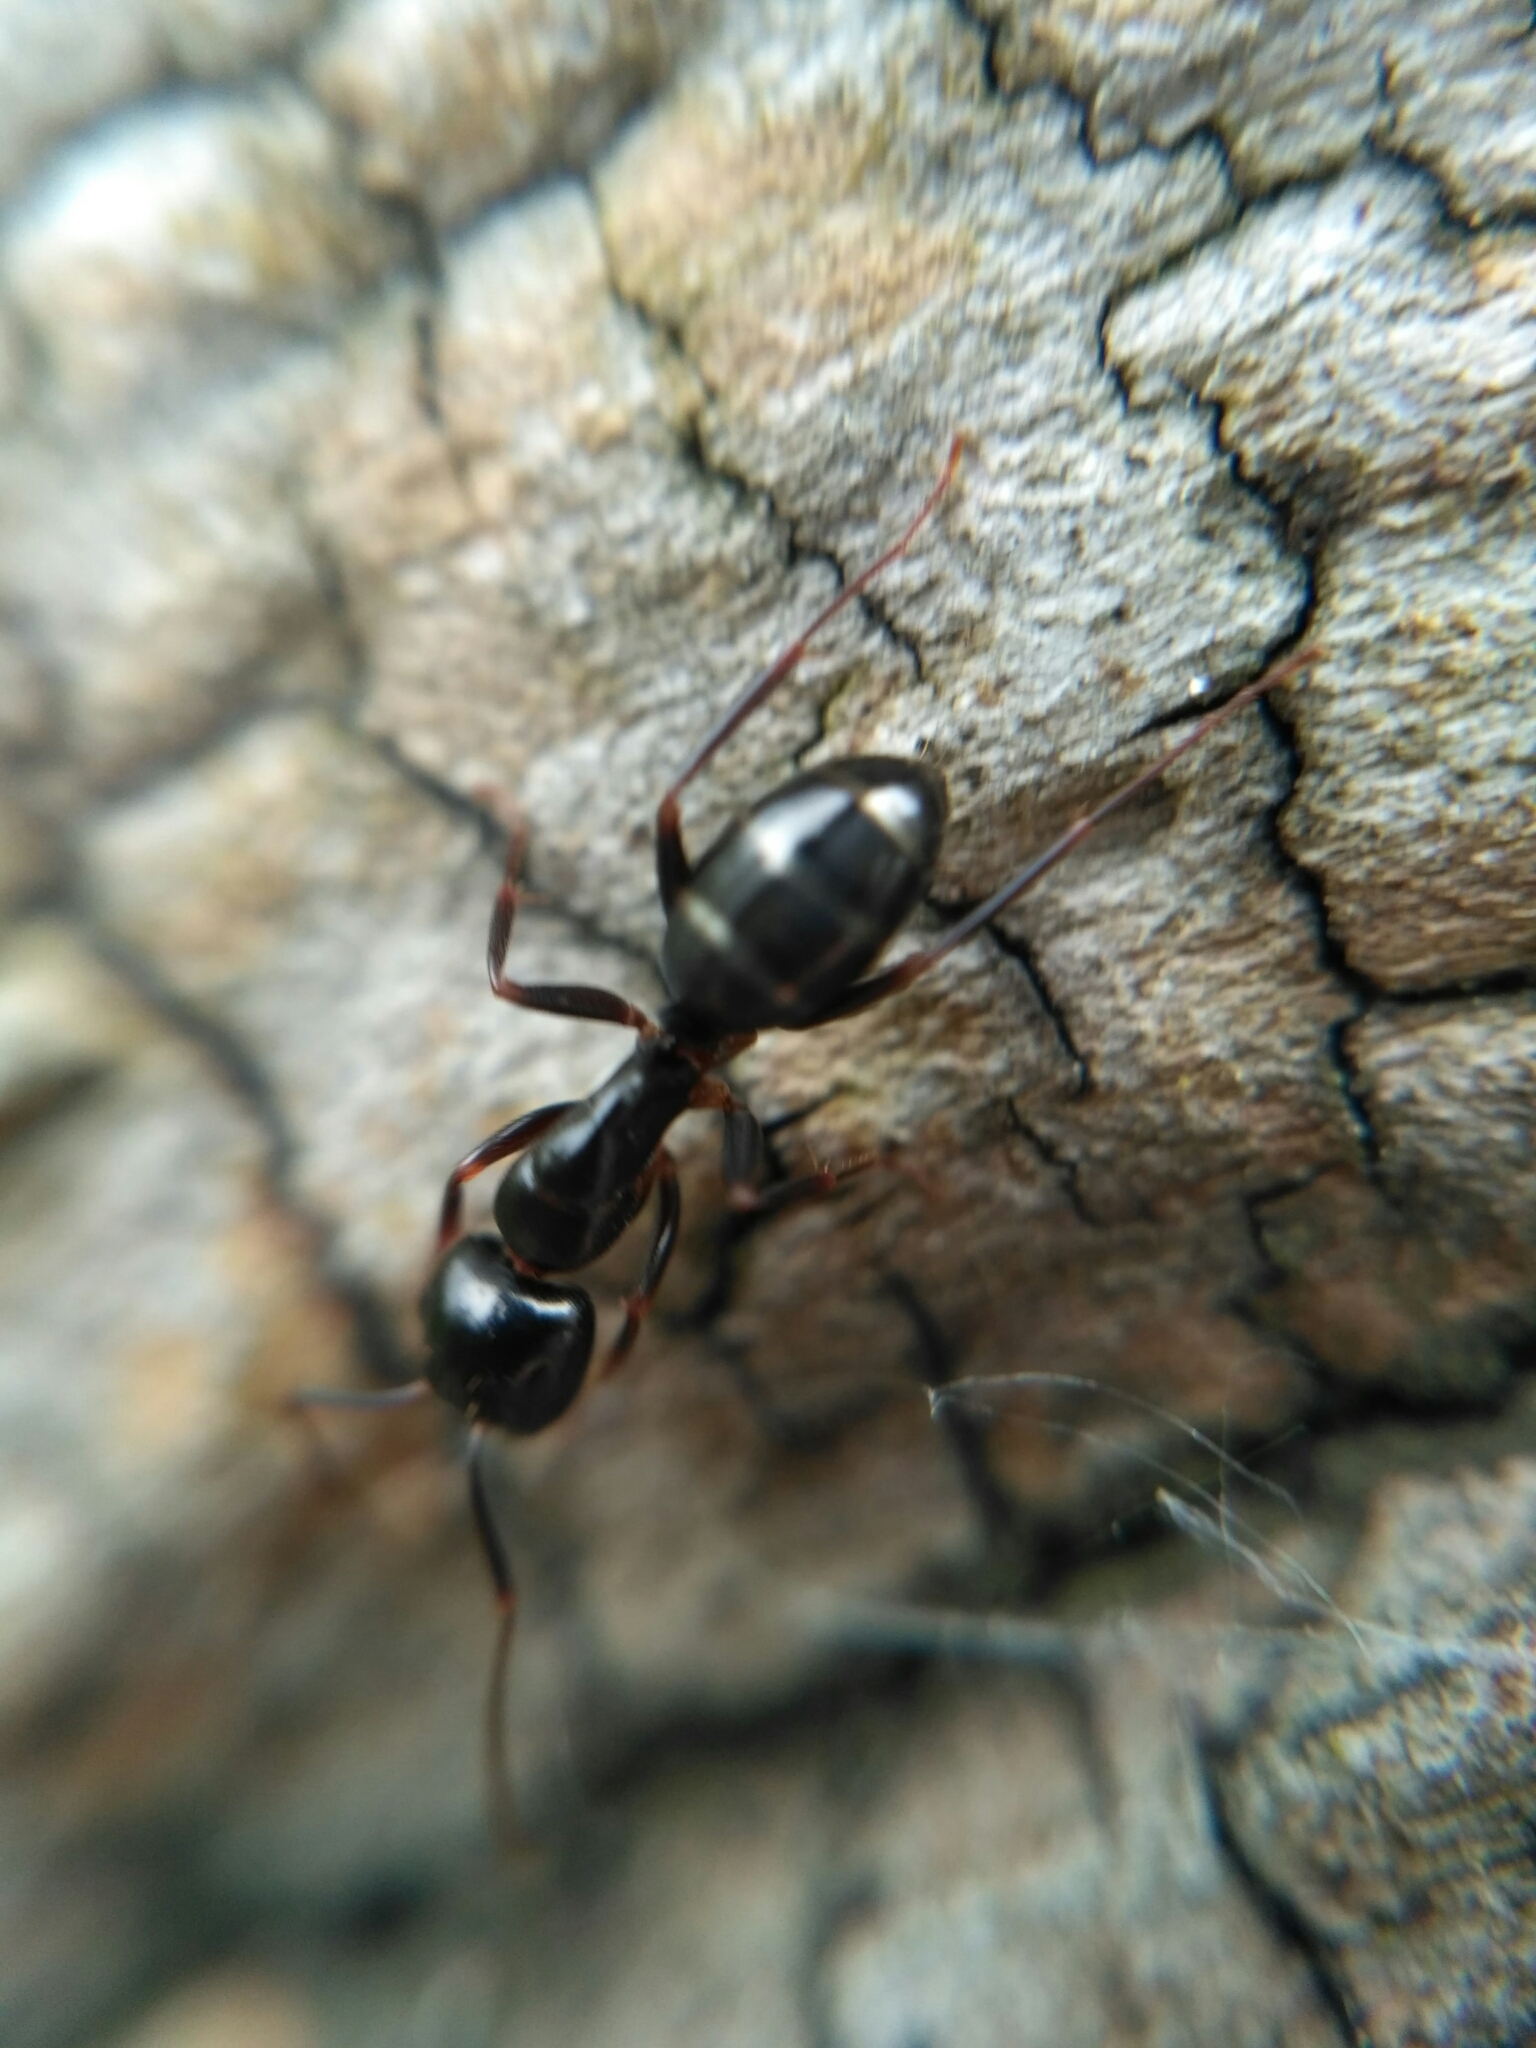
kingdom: Animalia
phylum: Arthropoda
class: Insecta
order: Hymenoptera
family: Formicidae
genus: Camponotus
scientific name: Camponotus fallax
